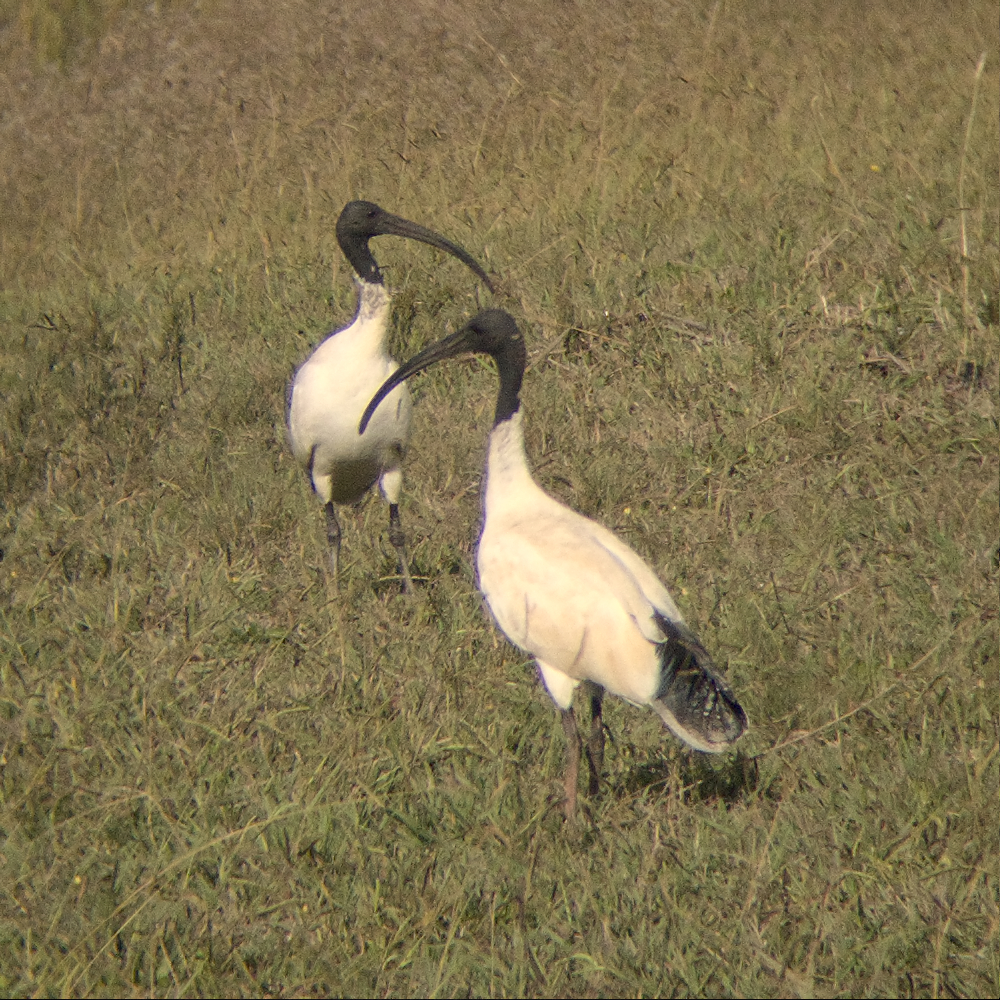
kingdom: Animalia
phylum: Chordata
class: Aves
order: Pelecaniformes
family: Threskiornithidae
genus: Threskiornis
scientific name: Threskiornis molucca
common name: Australian white ibis
